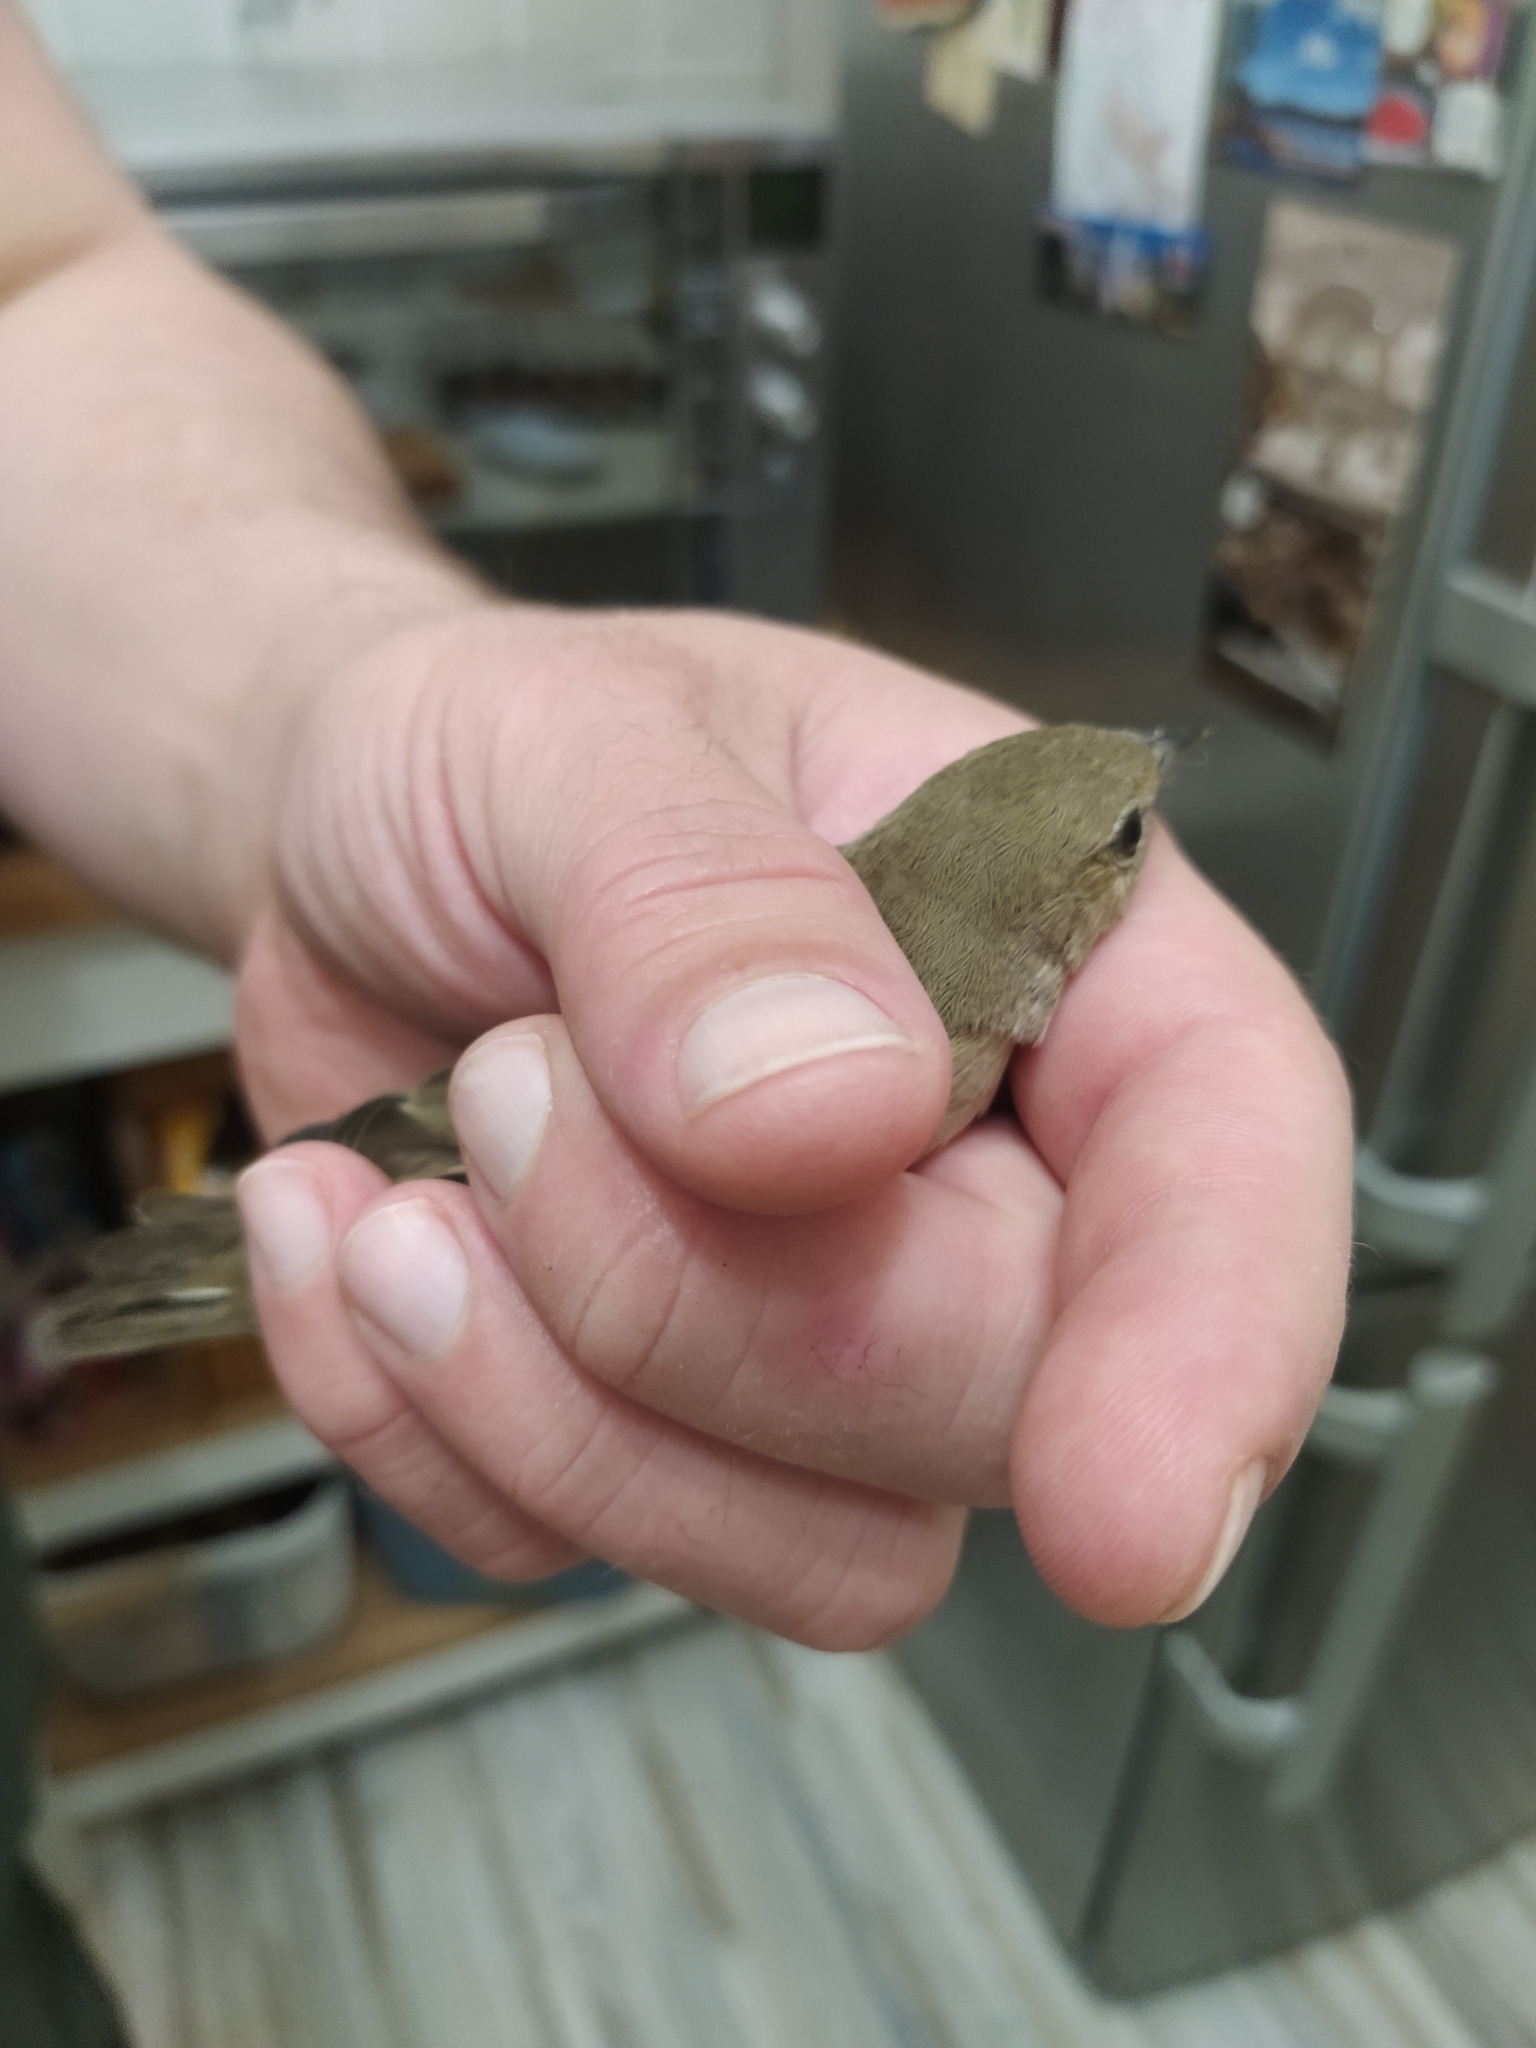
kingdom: Animalia
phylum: Chordata
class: Aves
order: Passeriformes
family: Sylviidae
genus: Sylvia
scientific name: Sylvia borin
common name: Garden warbler
